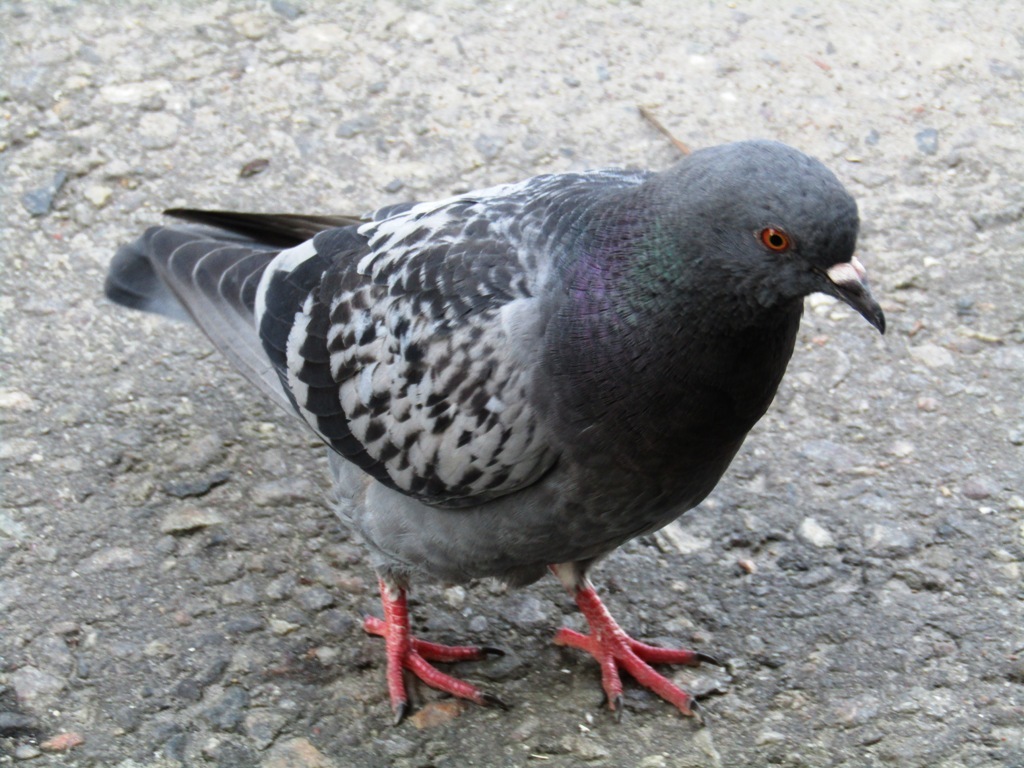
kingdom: Animalia
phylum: Chordata
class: Aves
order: Columbiformes
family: Columbidae
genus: Columba
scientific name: Columba livia
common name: Rock pigeon
